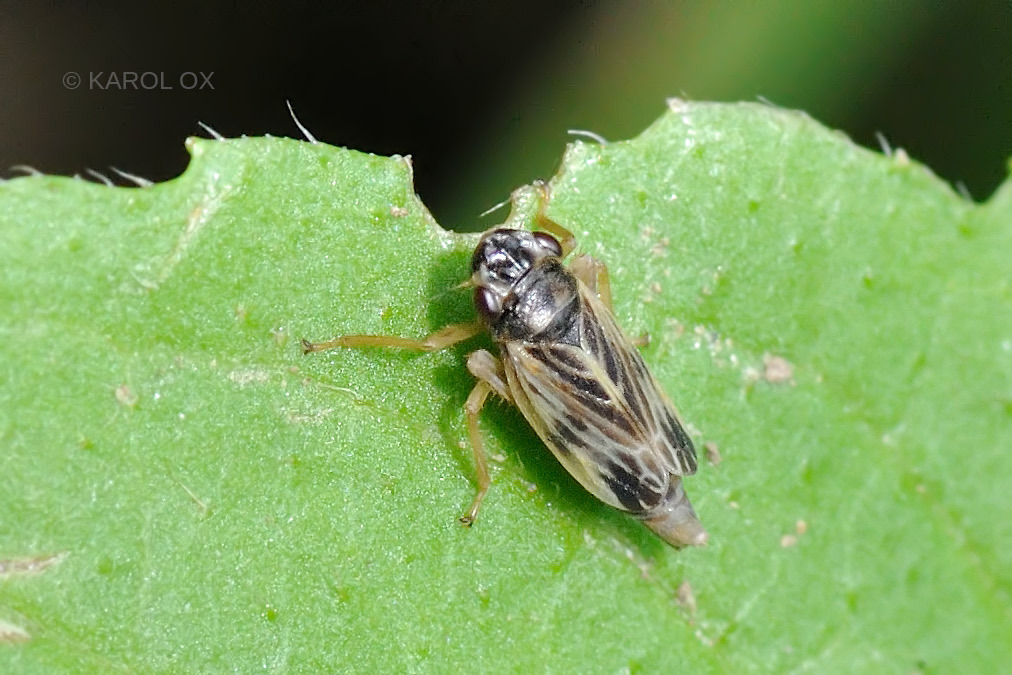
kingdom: Animalia
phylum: Arthropoda
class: Insecta
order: Hemiptera
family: Cicadellidae
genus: Evacanthus
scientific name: Evacanthus acuminatus
